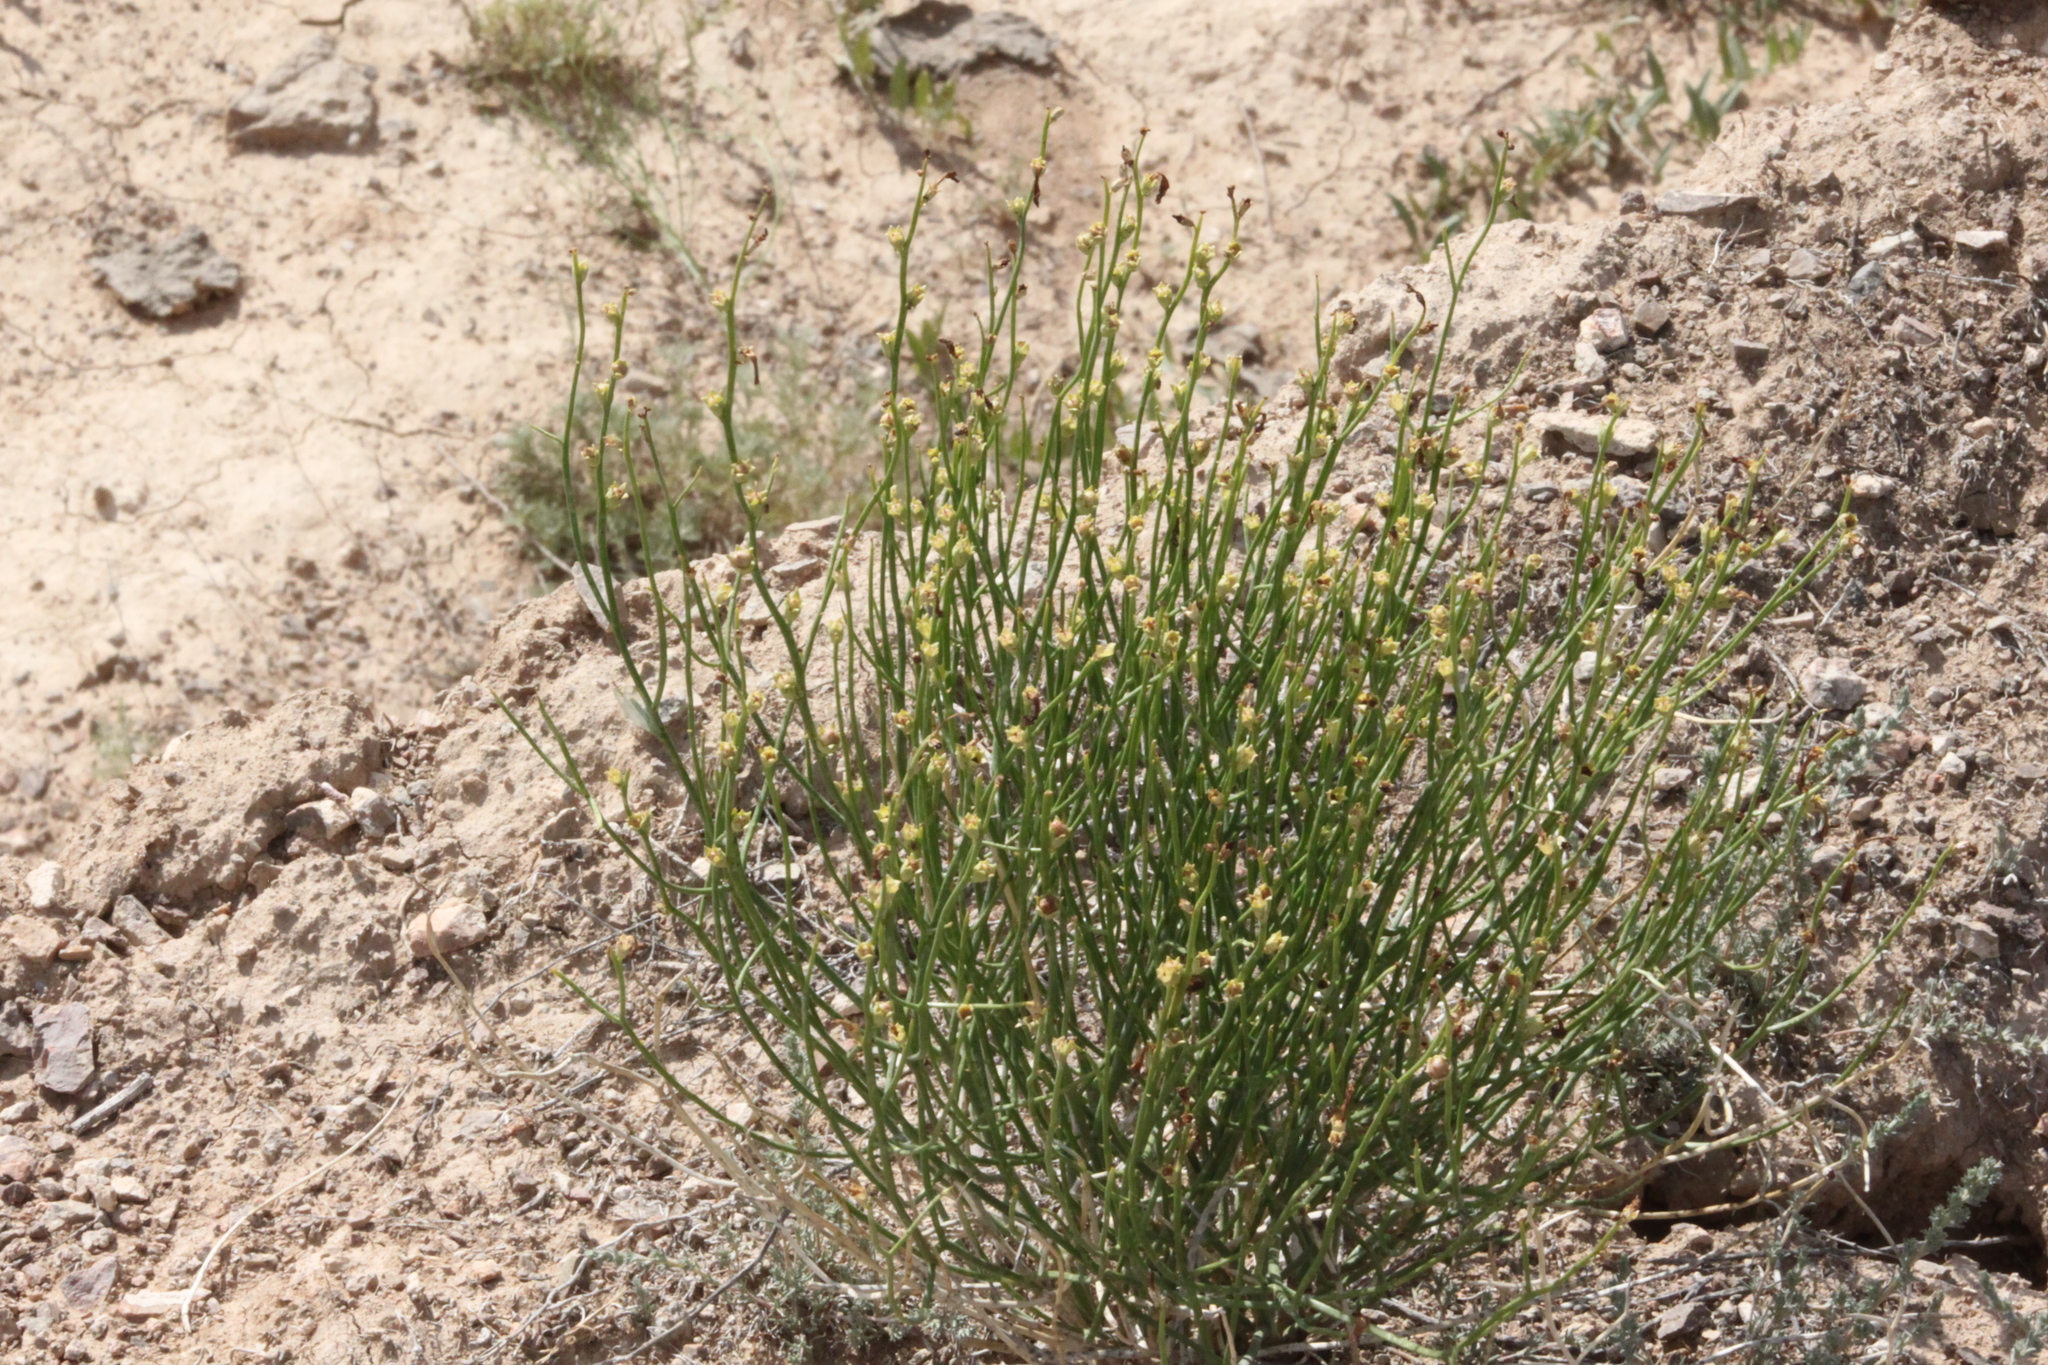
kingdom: Plantae
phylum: Tracheophyta
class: Magnoliopsida
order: Lamiales
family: Mazaceae
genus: Dodartia
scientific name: Dodartia orientalis
